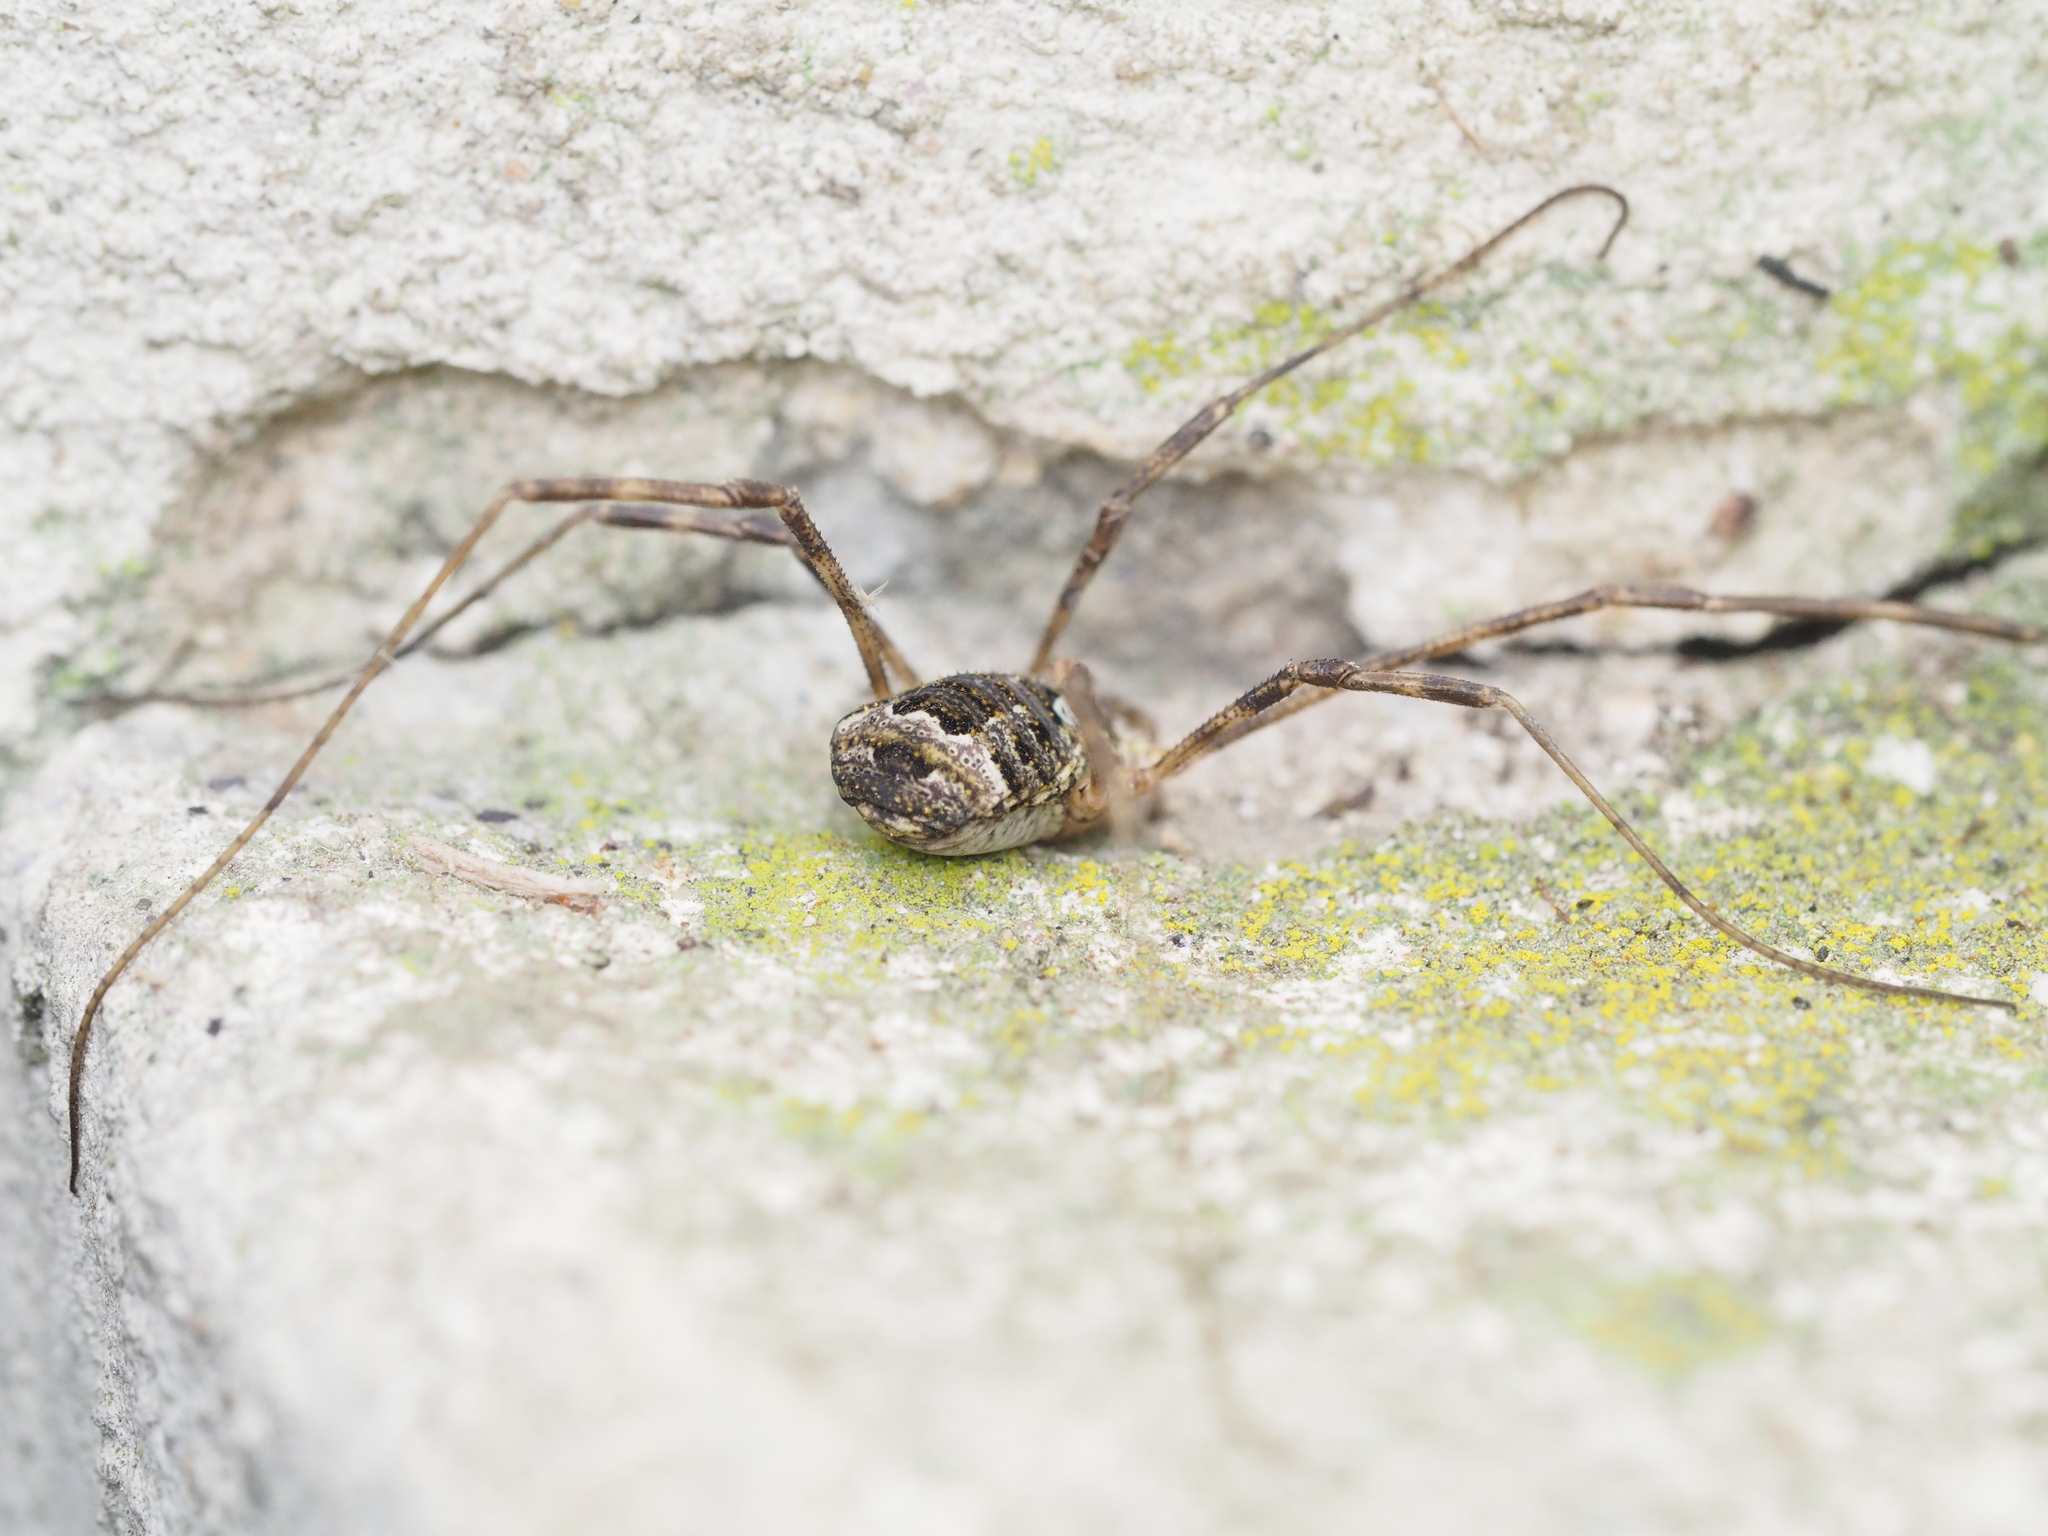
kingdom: Animalia
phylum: Arthropoda
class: Arachnida
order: Opiliones
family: Phalangiidae
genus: Lacinius
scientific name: Lacinius dentiger
